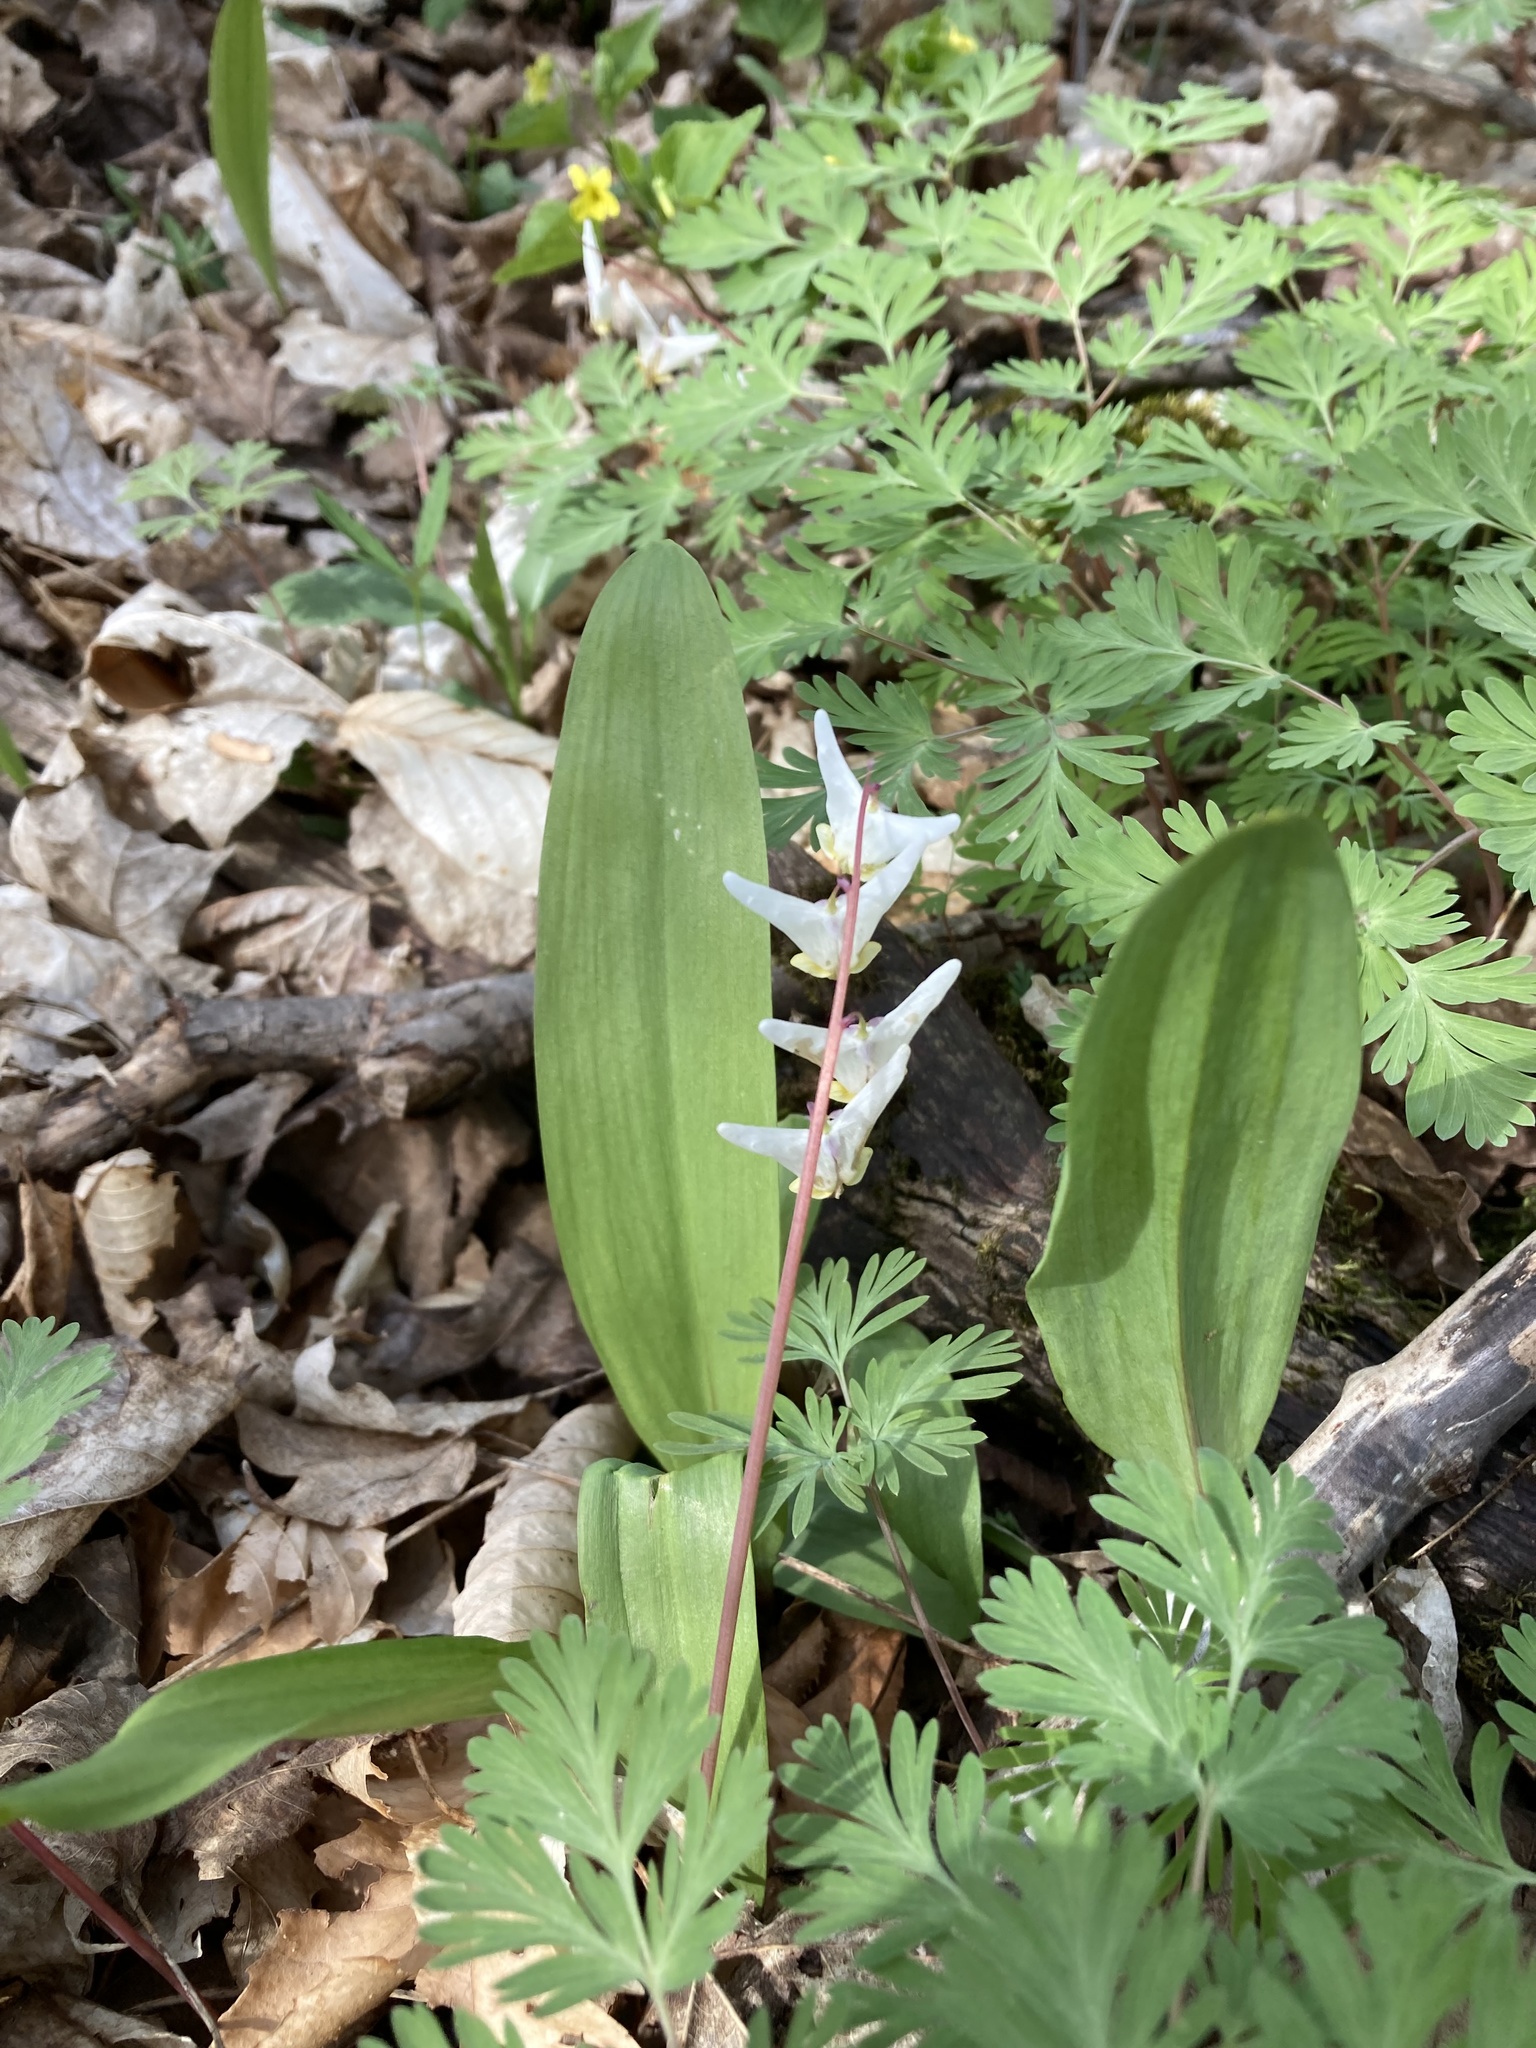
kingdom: Plantae
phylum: Tracheophyta
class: Magnoliopsida
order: Ranunculales
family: Papaveraceae
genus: Dicentra
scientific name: Dicentra cucullaria
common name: Dutchman's breeches
